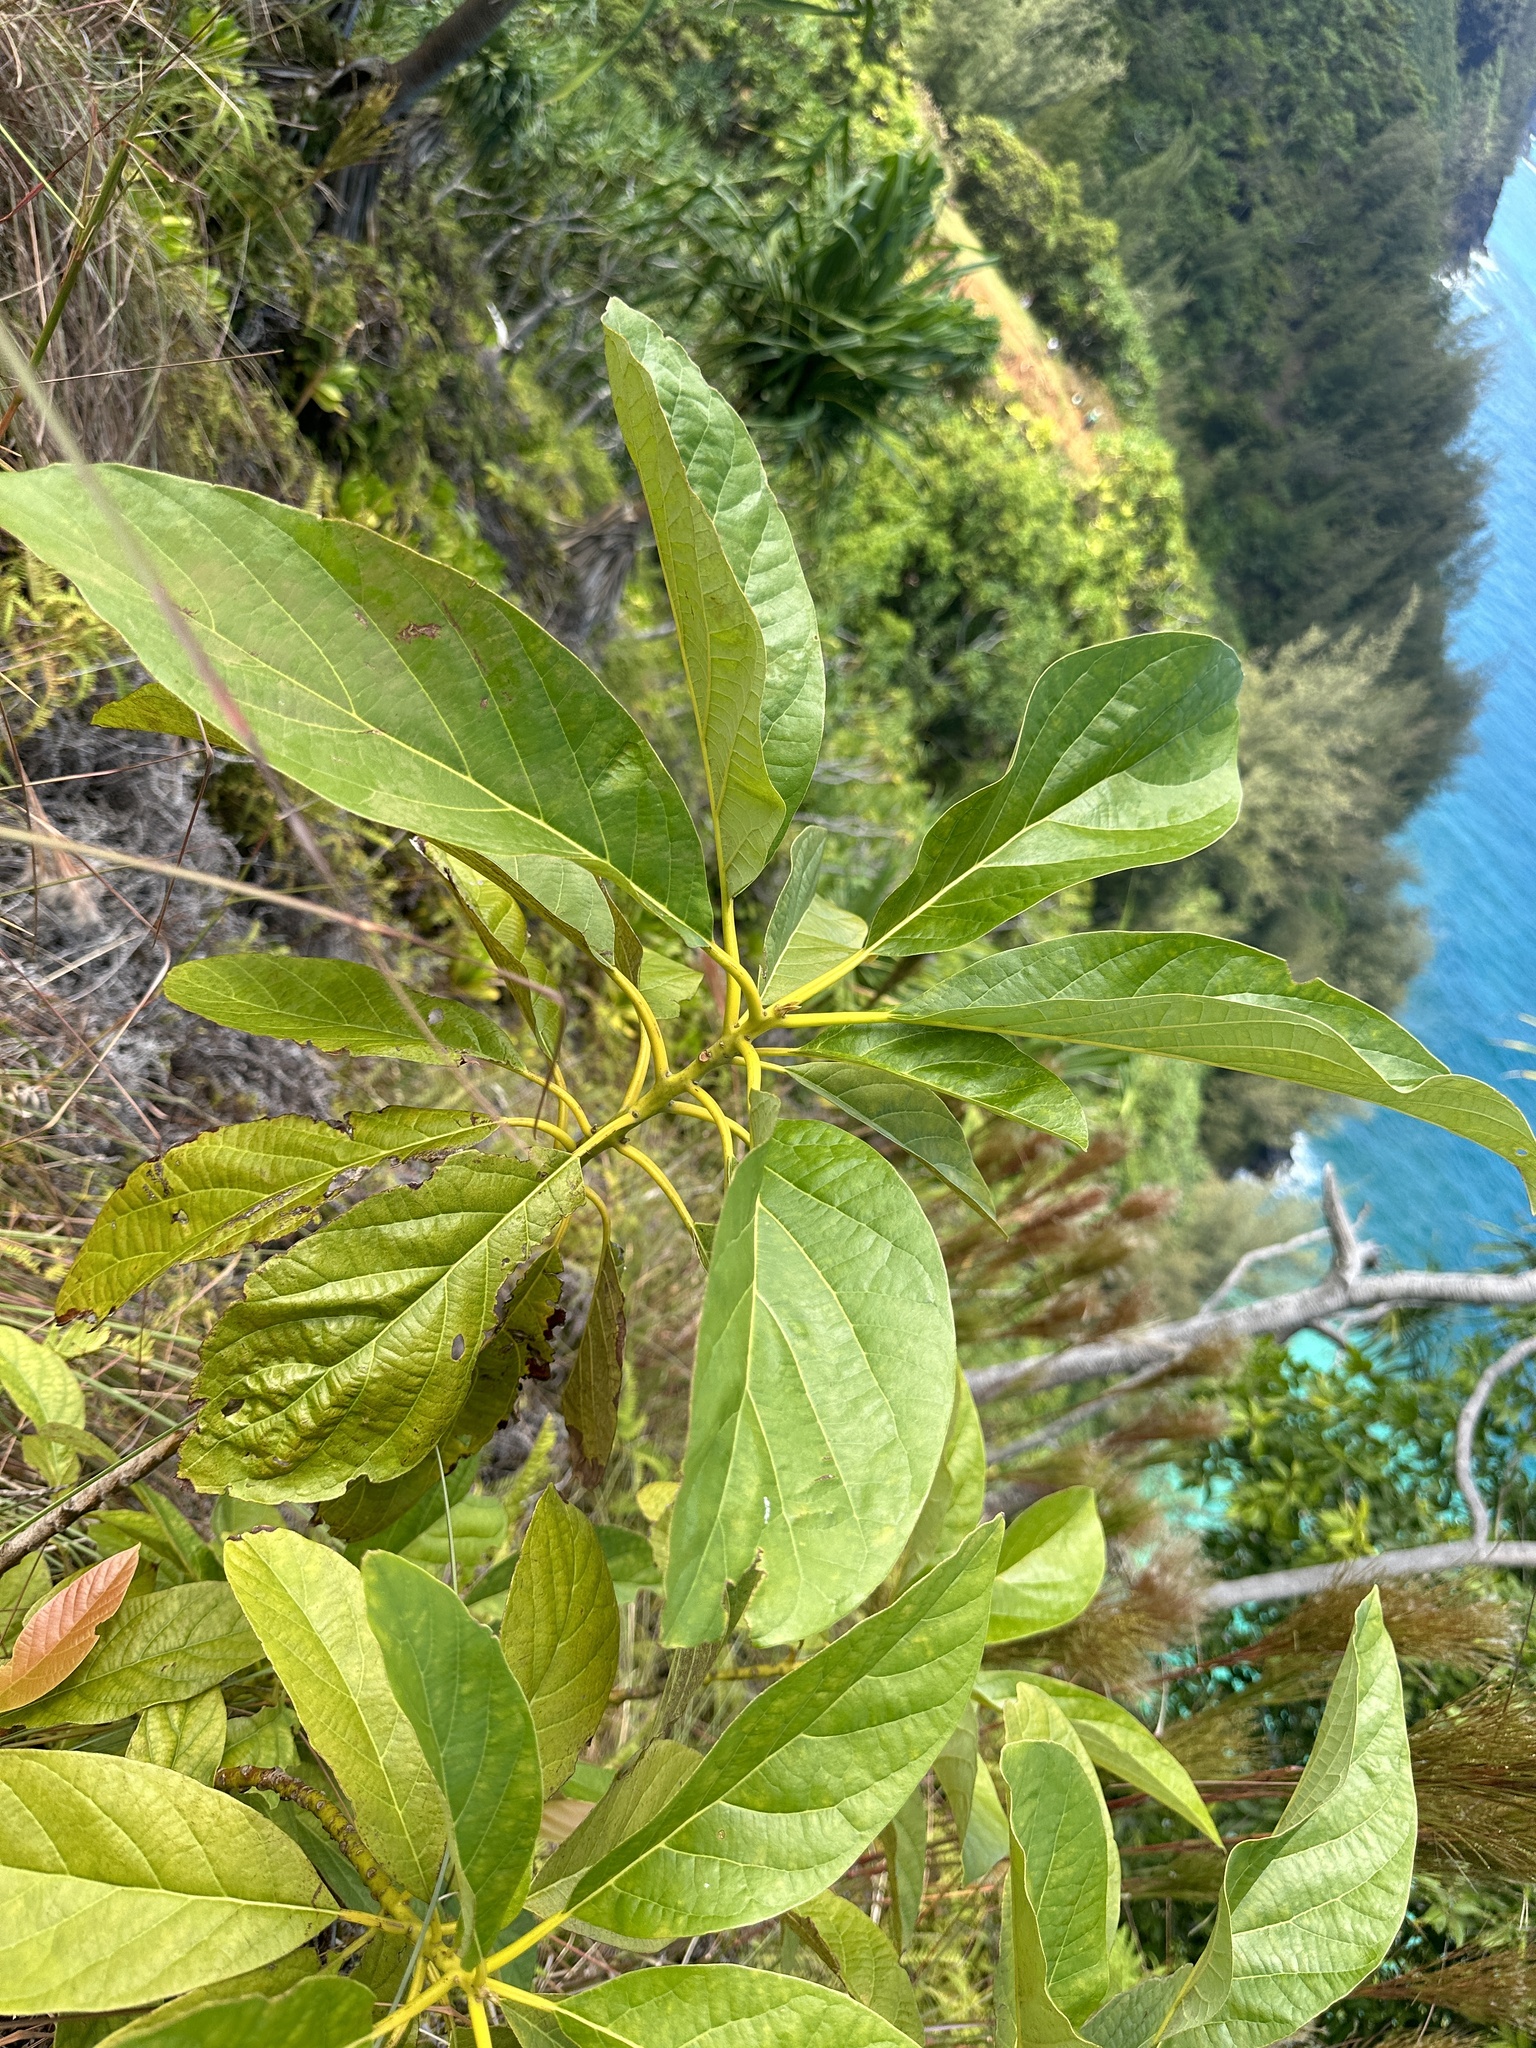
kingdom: Plantae
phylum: Tracheophyta
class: Magnoliopsida
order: Laurales
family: Lauraceae
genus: Persea
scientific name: Persea americana
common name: Avocado
